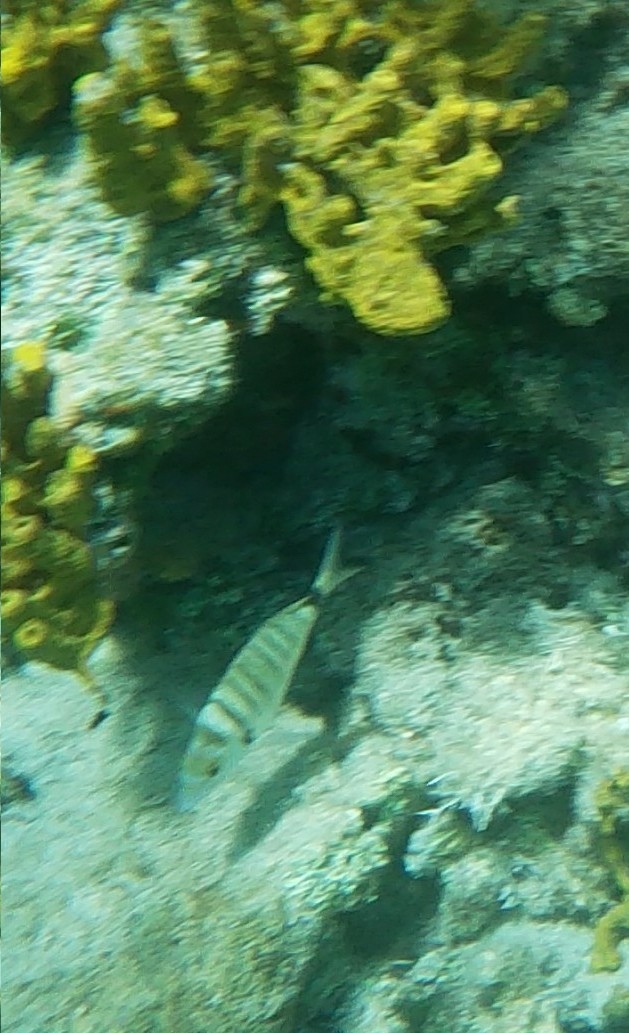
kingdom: Animalia
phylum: Chordata
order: Perciformes
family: Sparidae
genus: Diplodus
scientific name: Diplodus puntazzo
